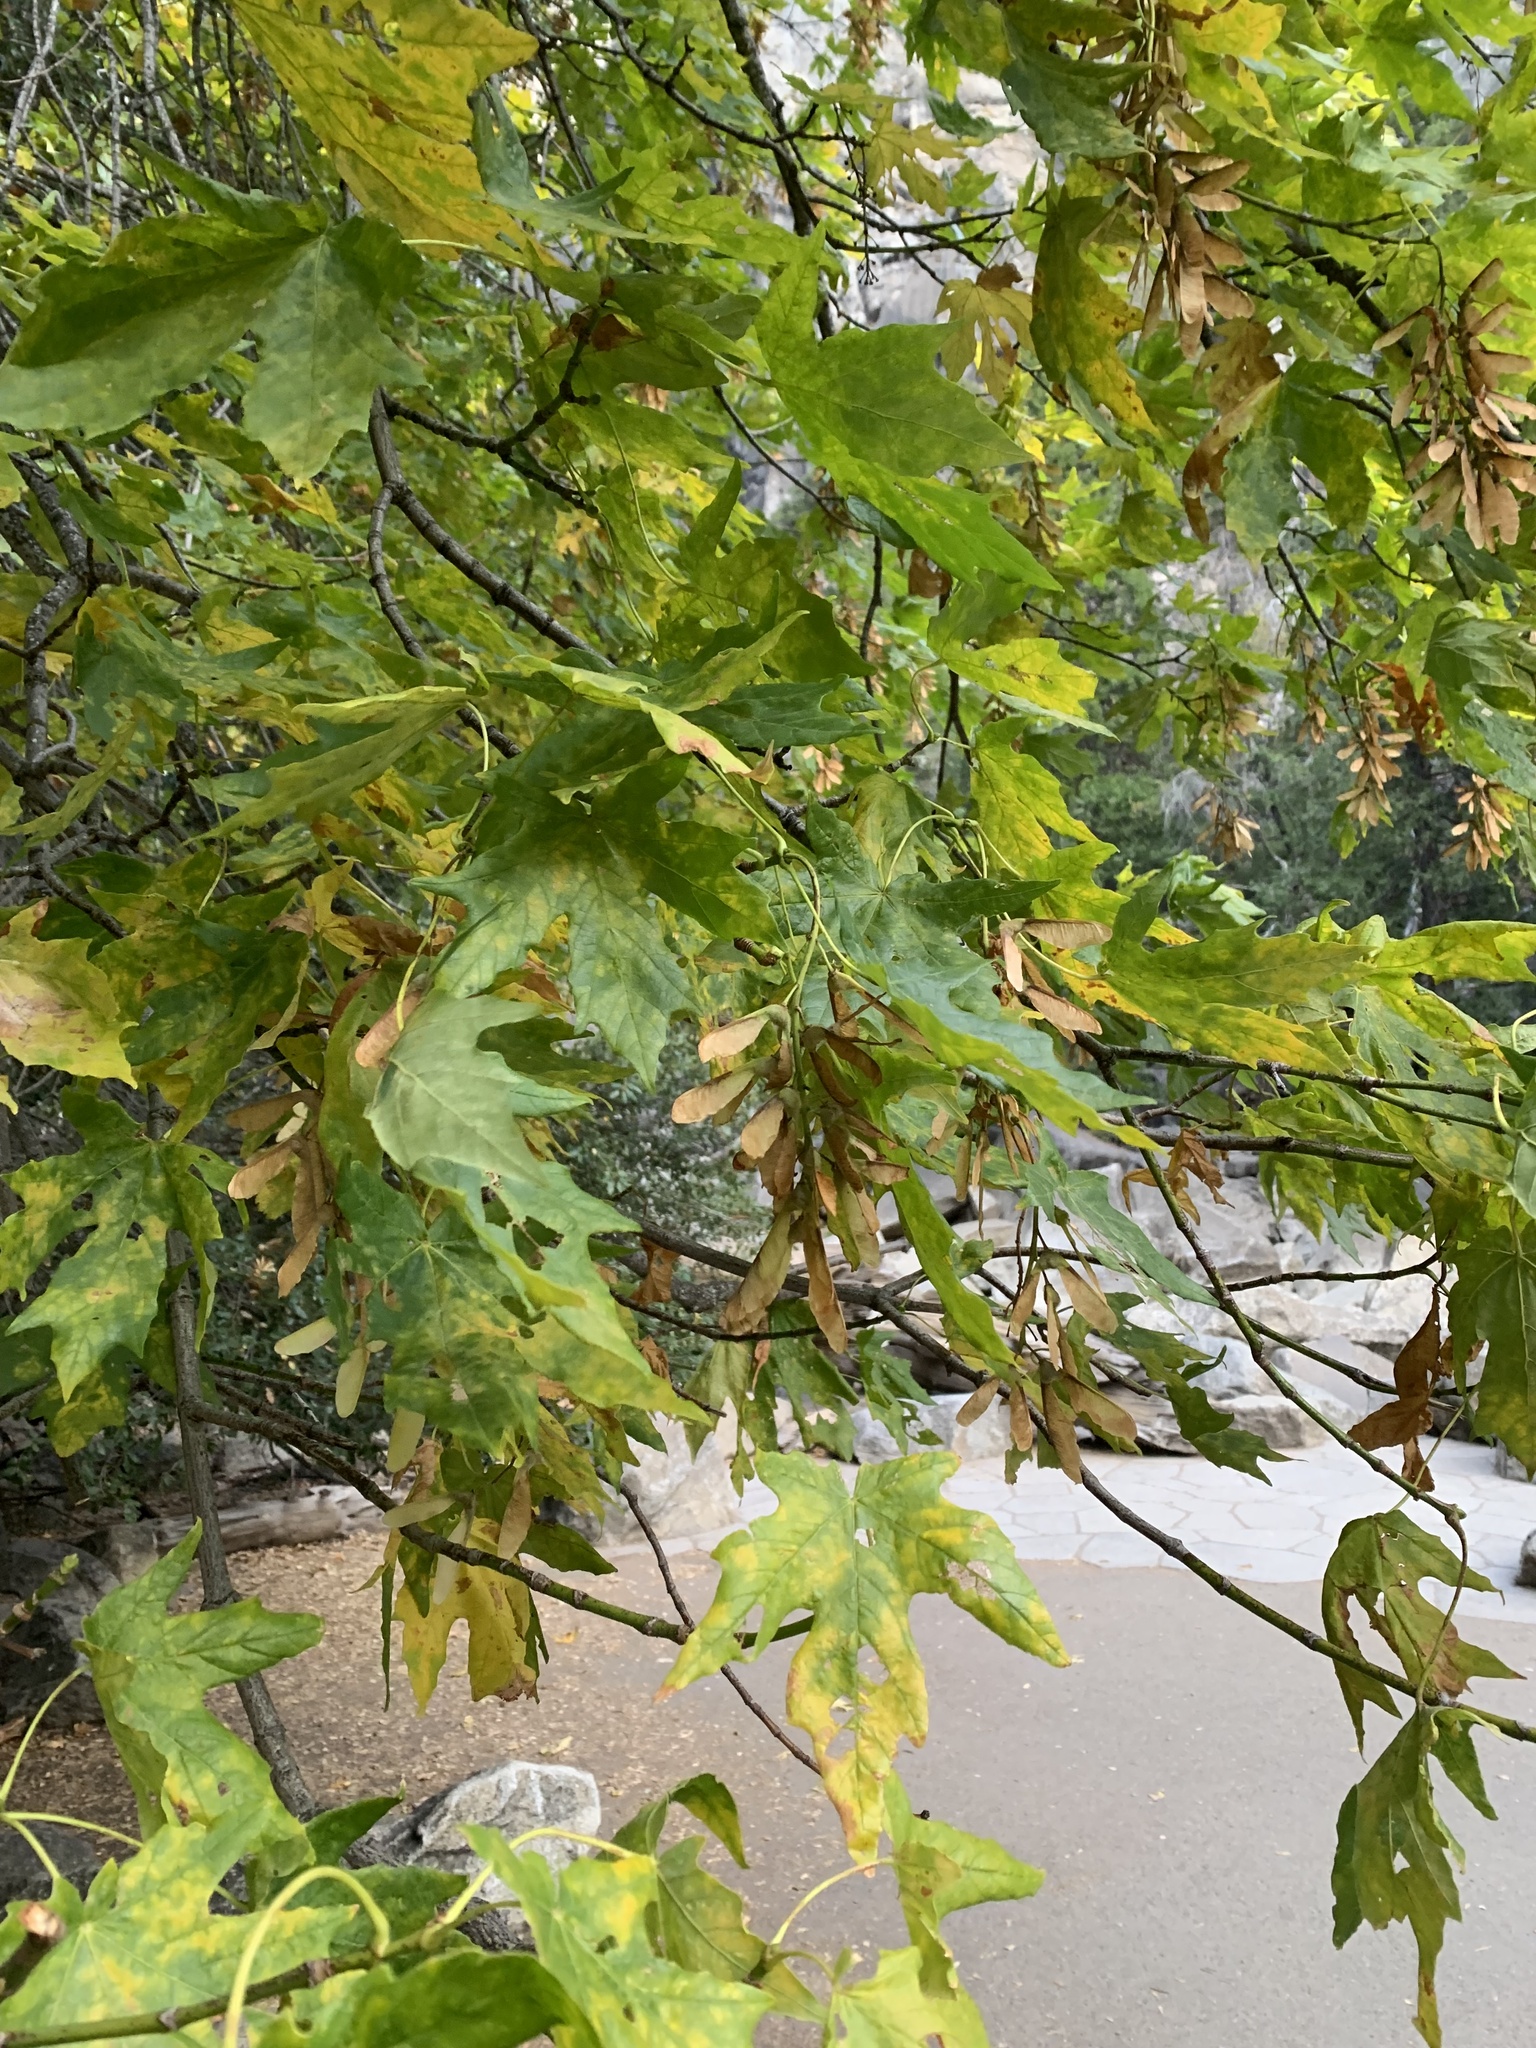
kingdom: Plantae
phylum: Tracheophyta
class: Magnoliopsida
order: Sapindales
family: Sapindaceae
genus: Acer
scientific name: Acer macrophyllum
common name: Oregon maple
